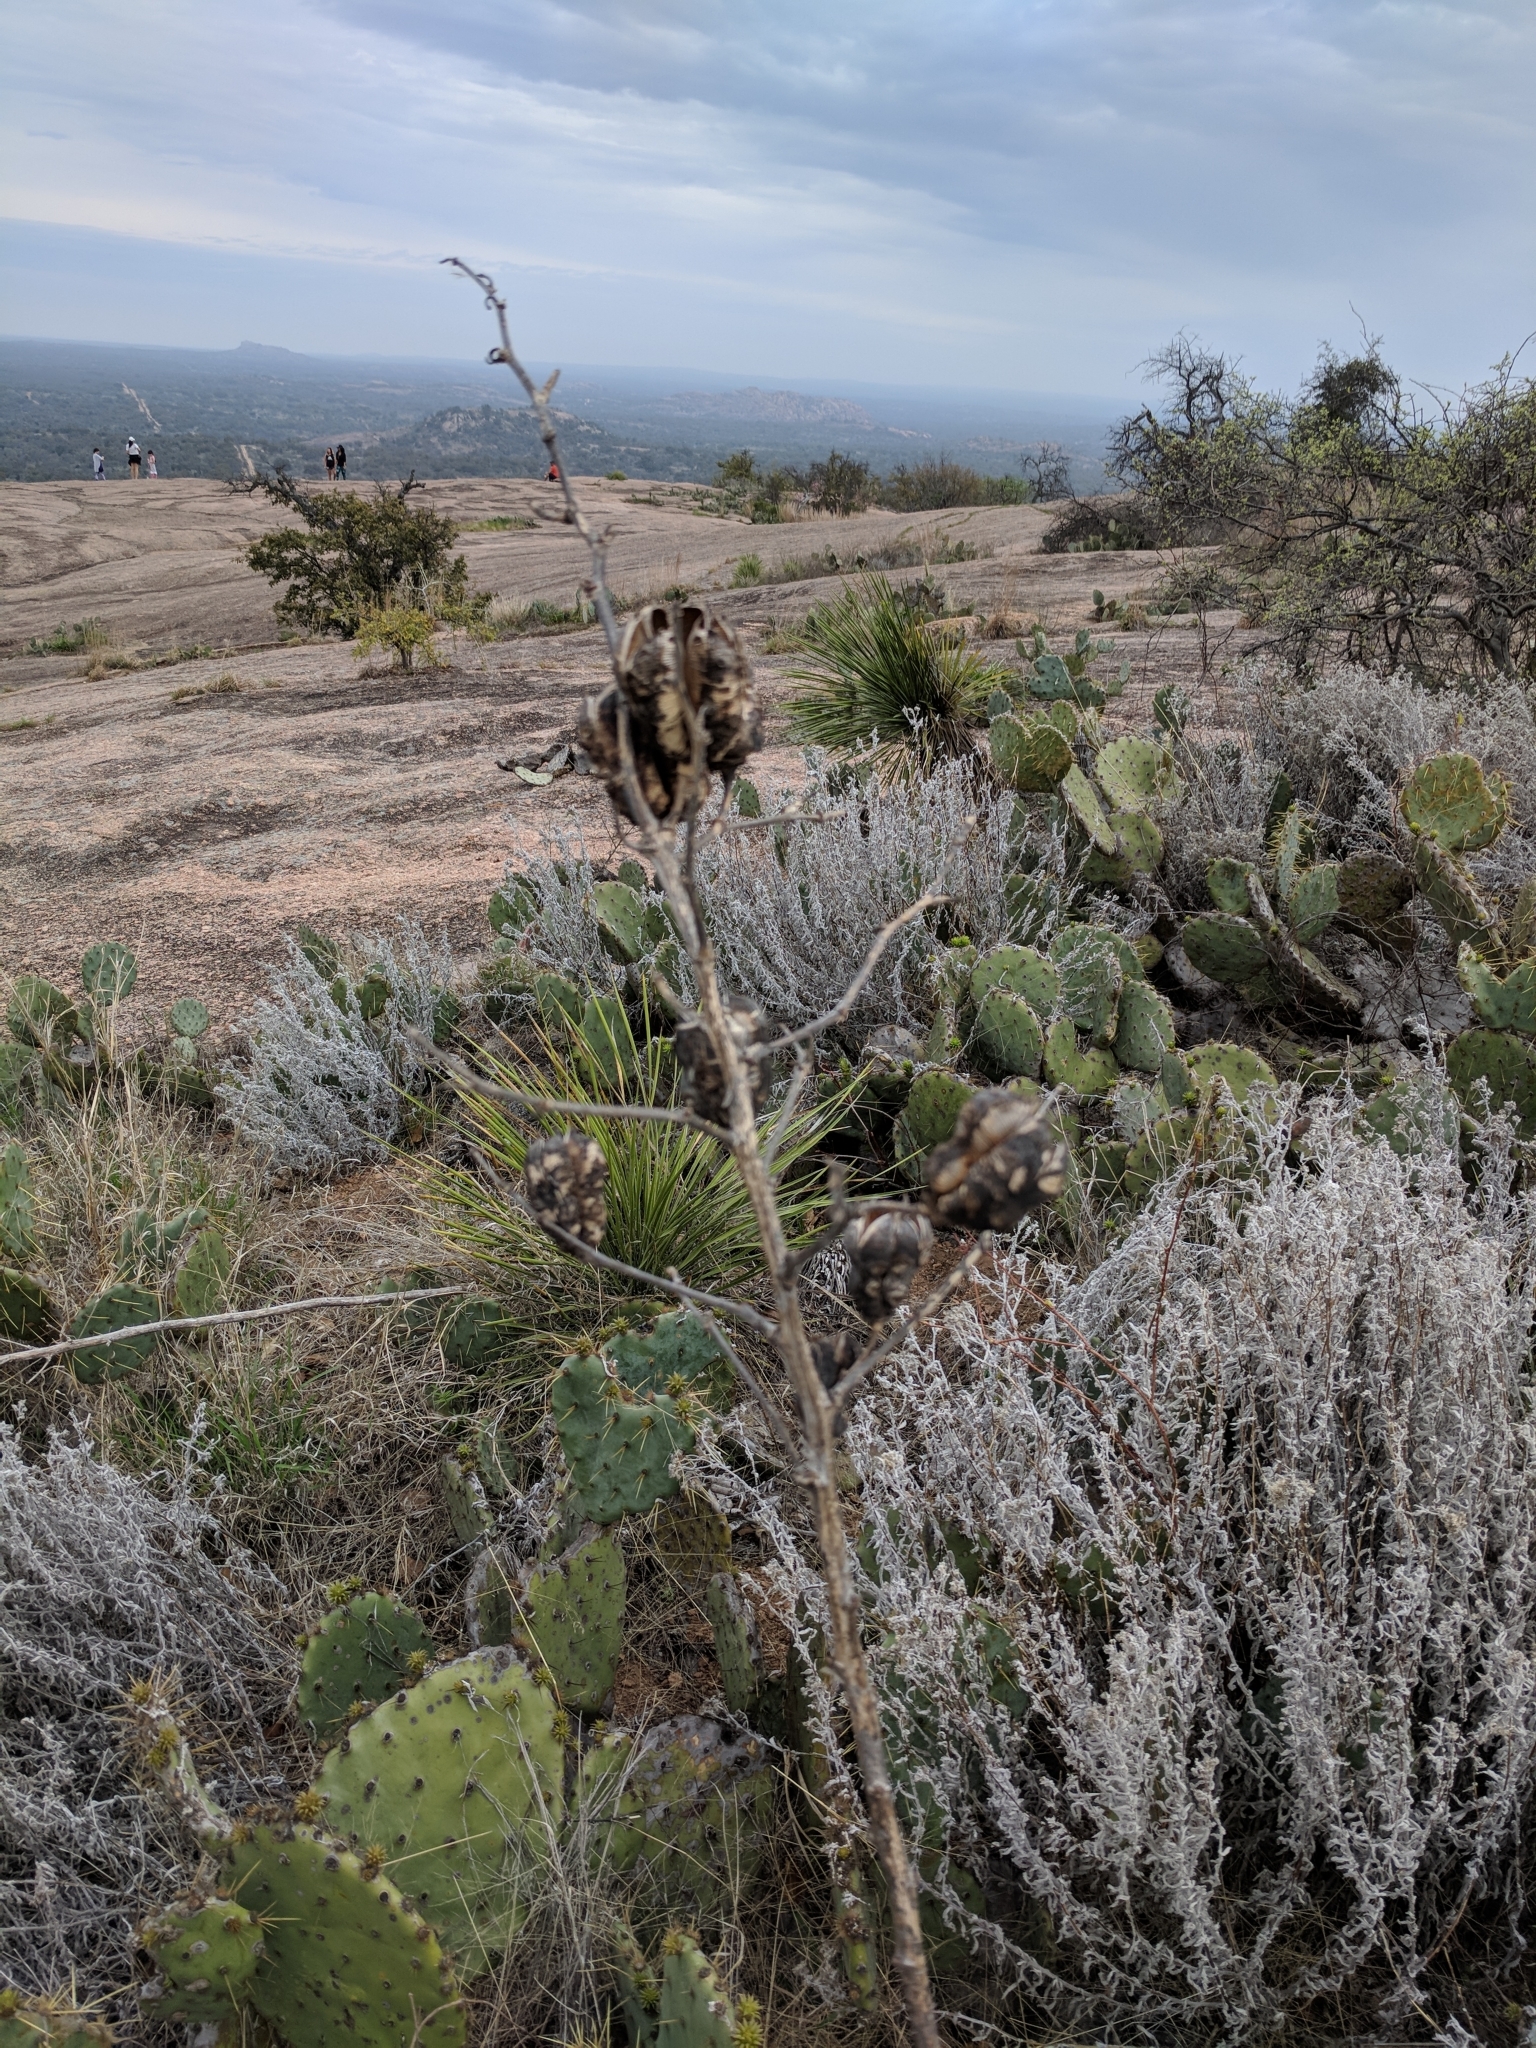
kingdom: Plantae
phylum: Tracheophyta
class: Liliopsida
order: Asparagales
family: Asparagaceae
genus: Yucca
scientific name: Yucca constricta
